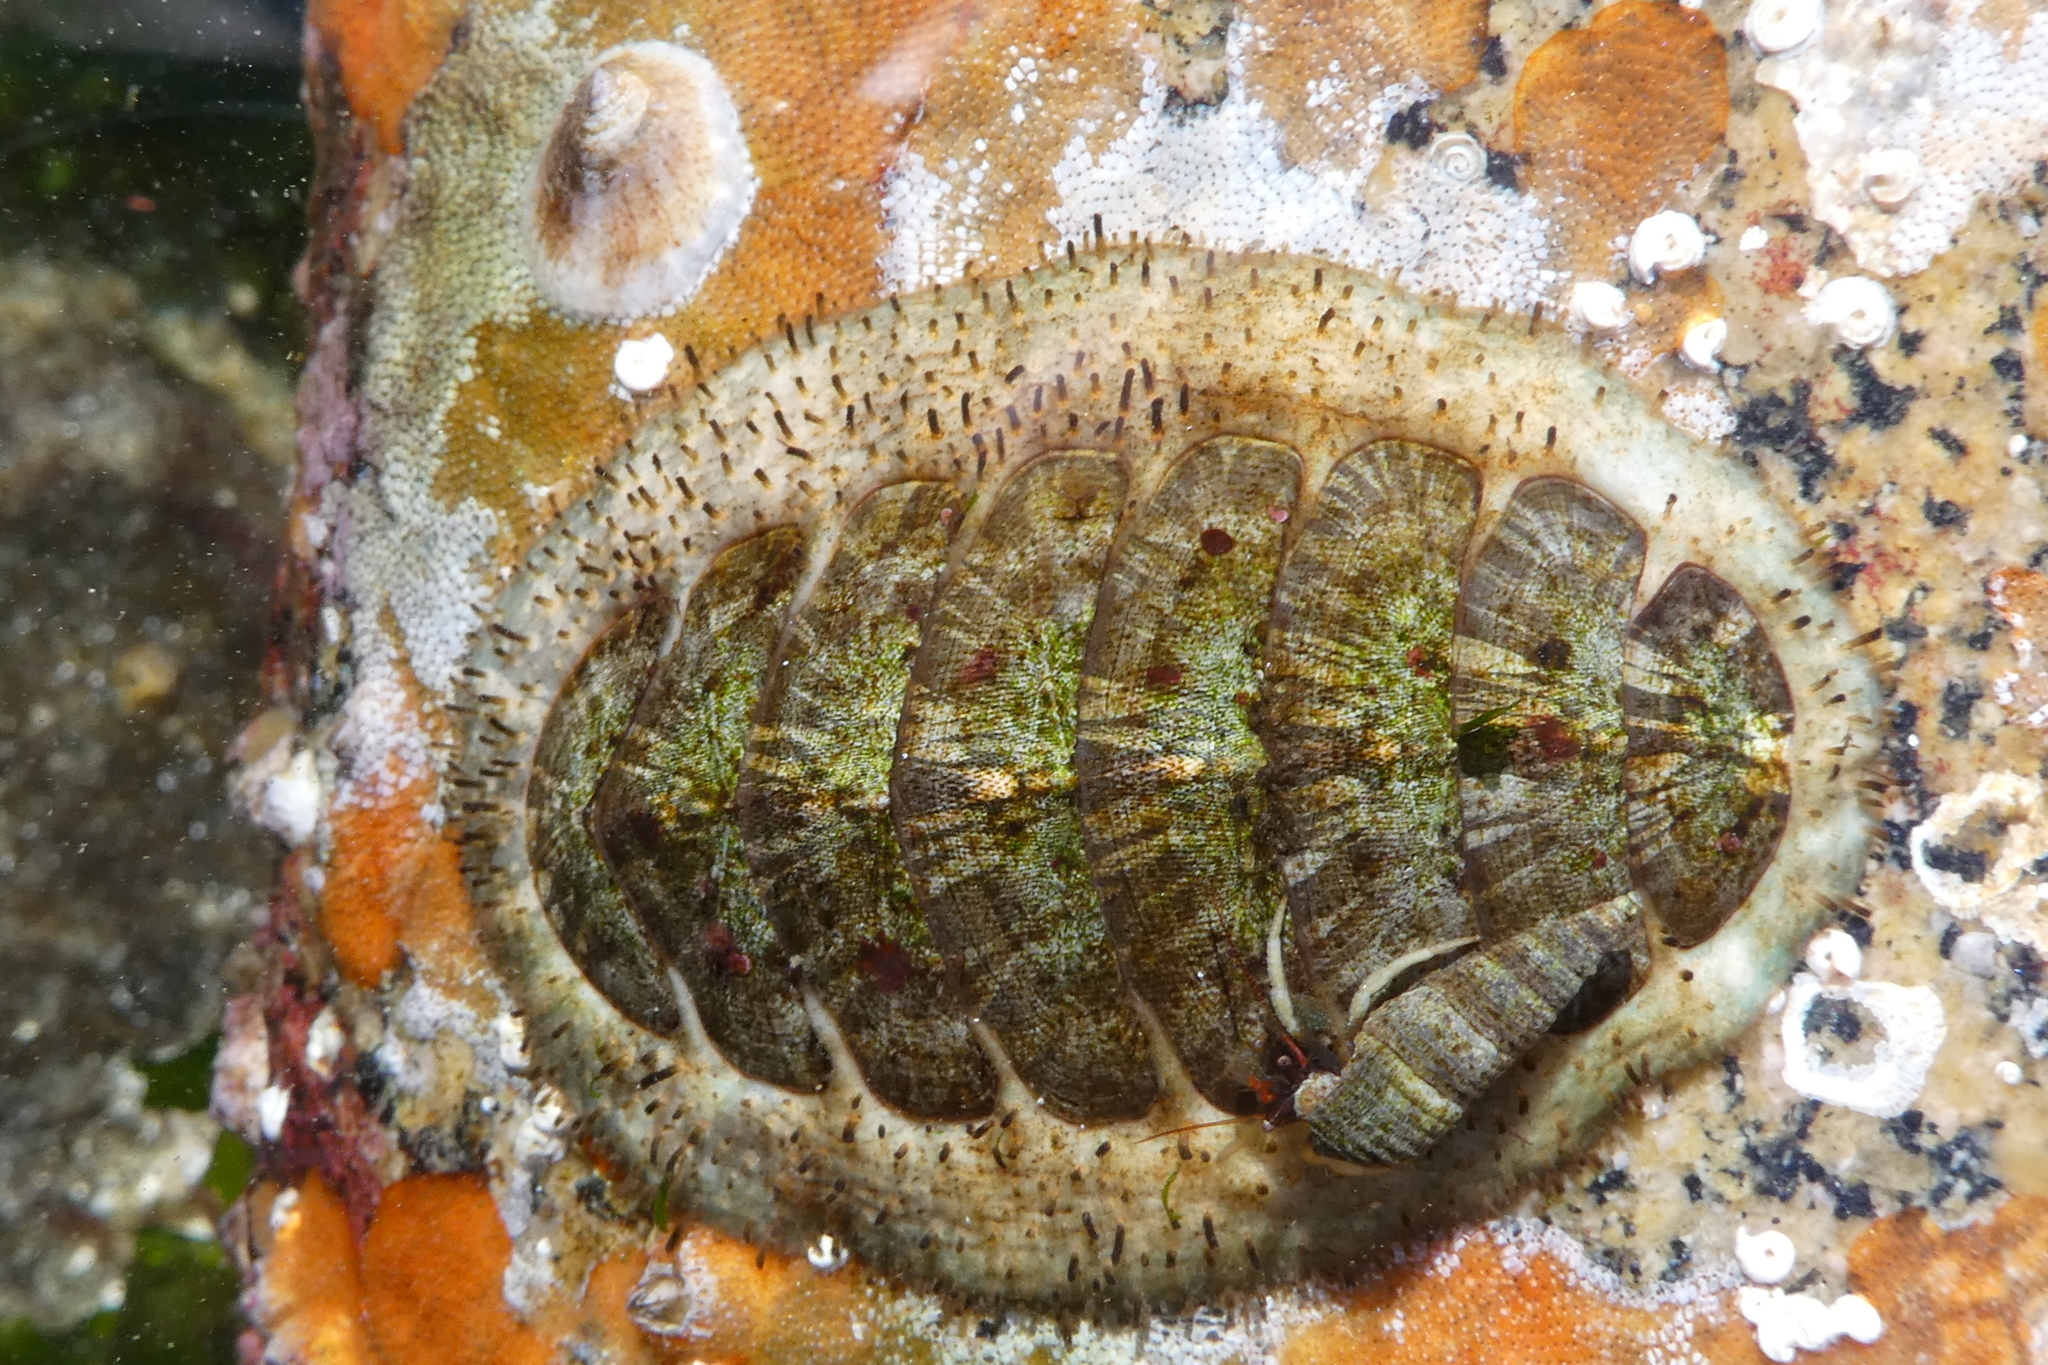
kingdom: Animalia
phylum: Mollusca
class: Polyplacophora
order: Chitonida
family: Mopaliidae
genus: Mopalia
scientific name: Mopalia lignosa
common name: Woody chiton
